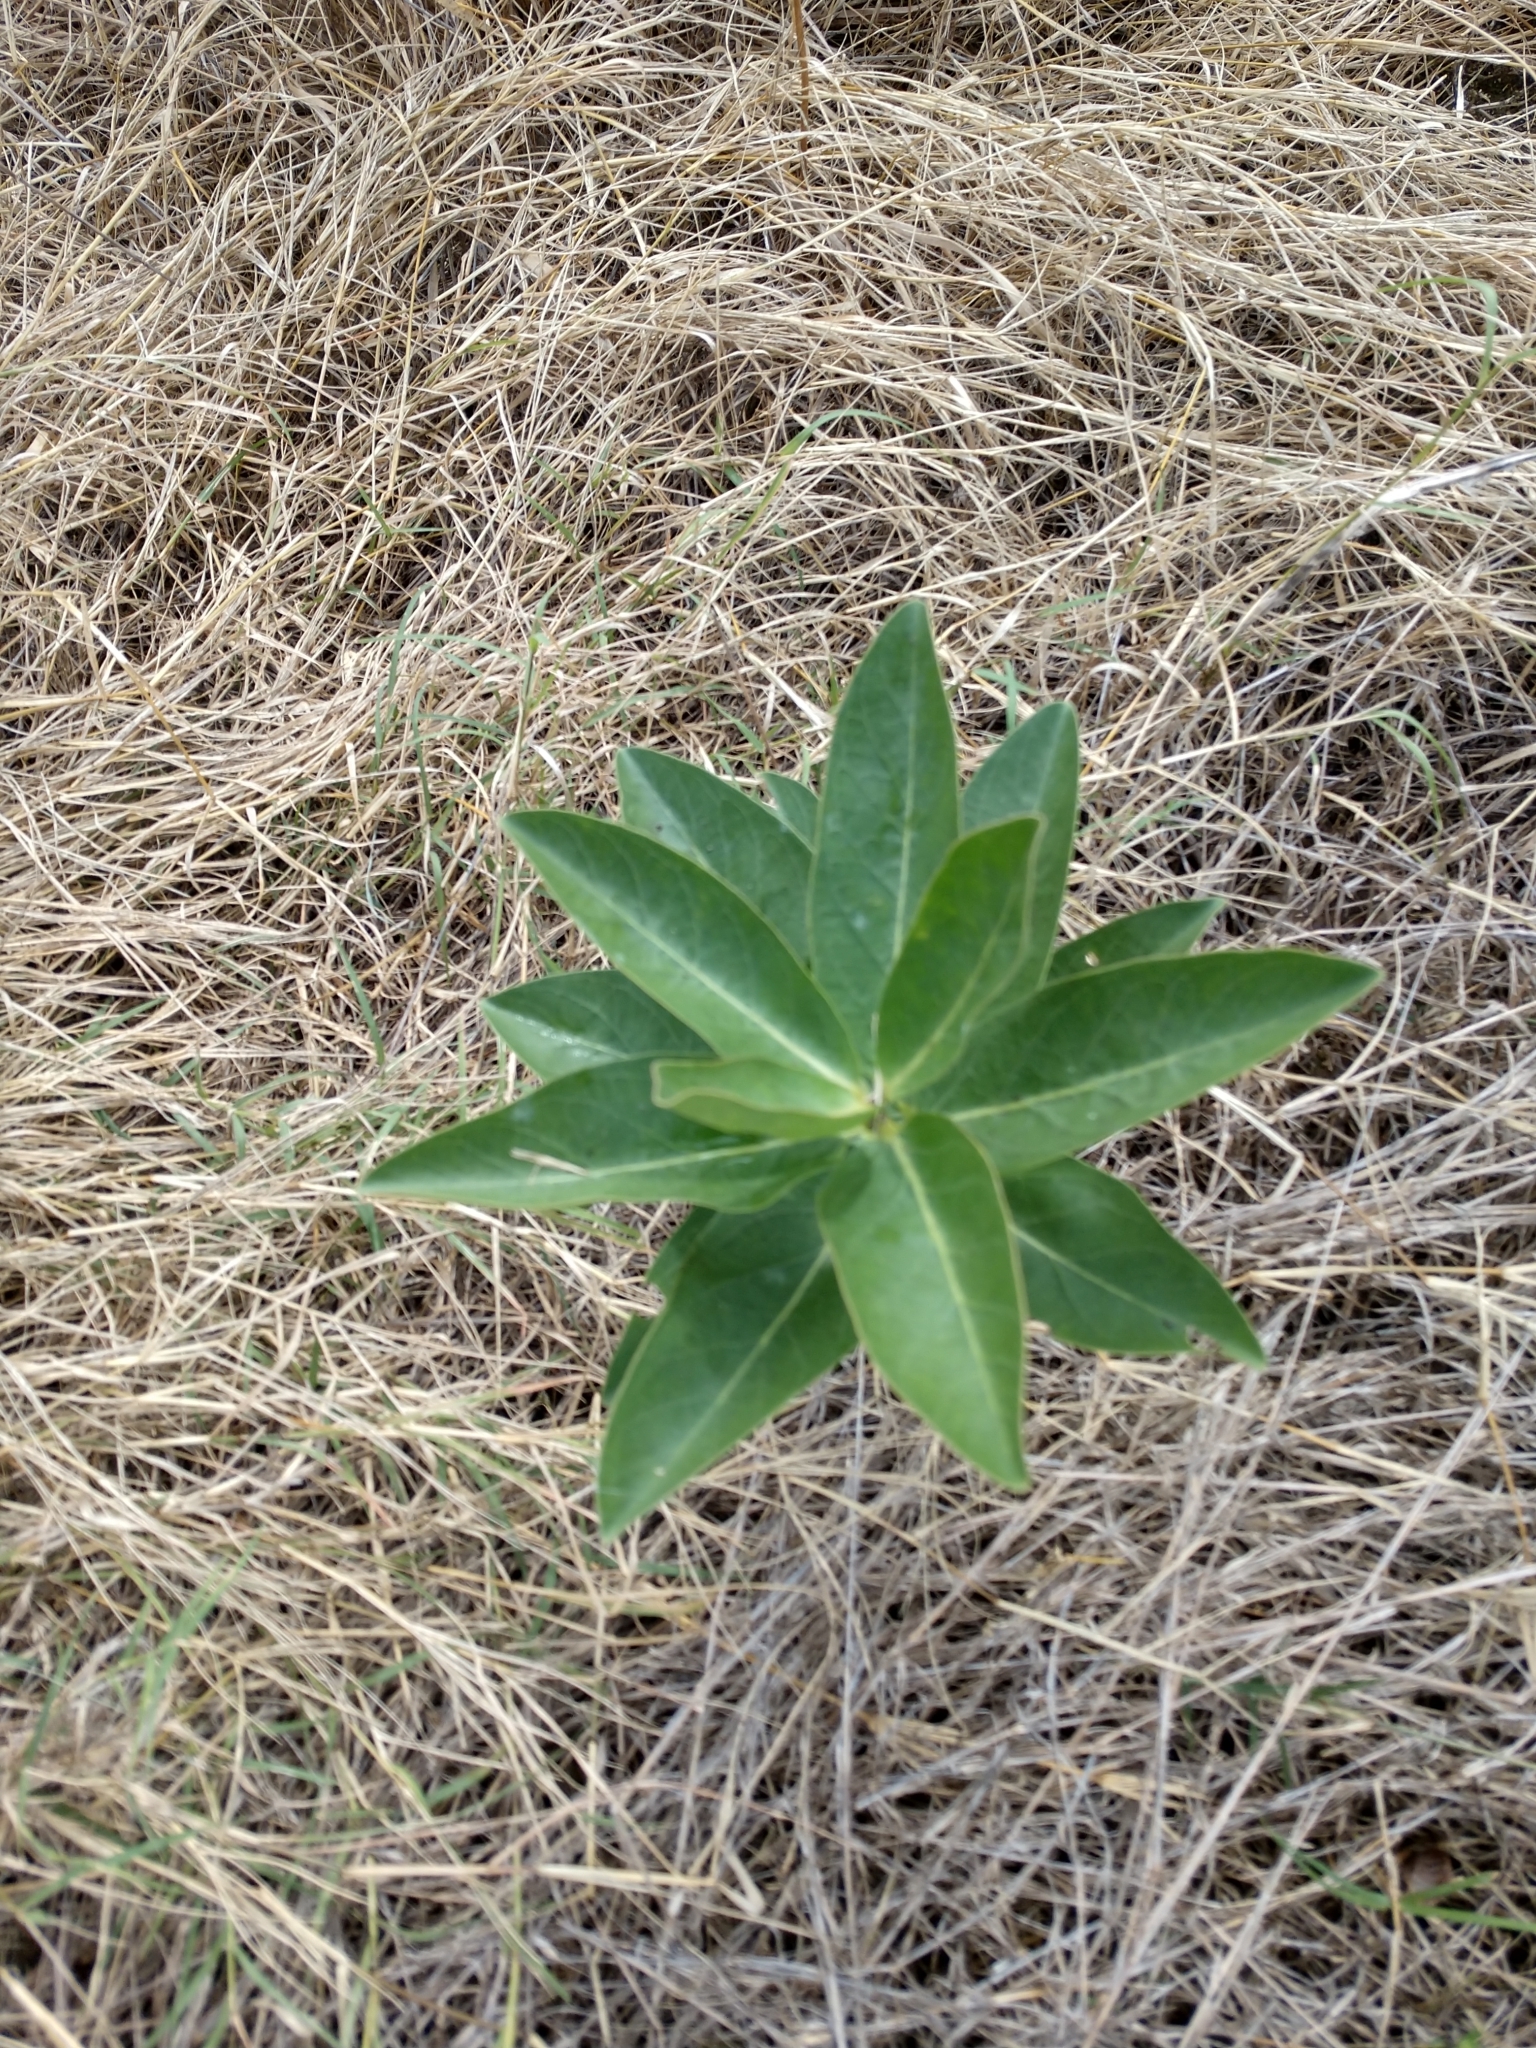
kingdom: Plantae
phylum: Tracheophyta
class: Magnoliopsida
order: Gentianales
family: Apocynaceae
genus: Asclepias
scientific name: Asclepias viridis
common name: Antelope-horns
